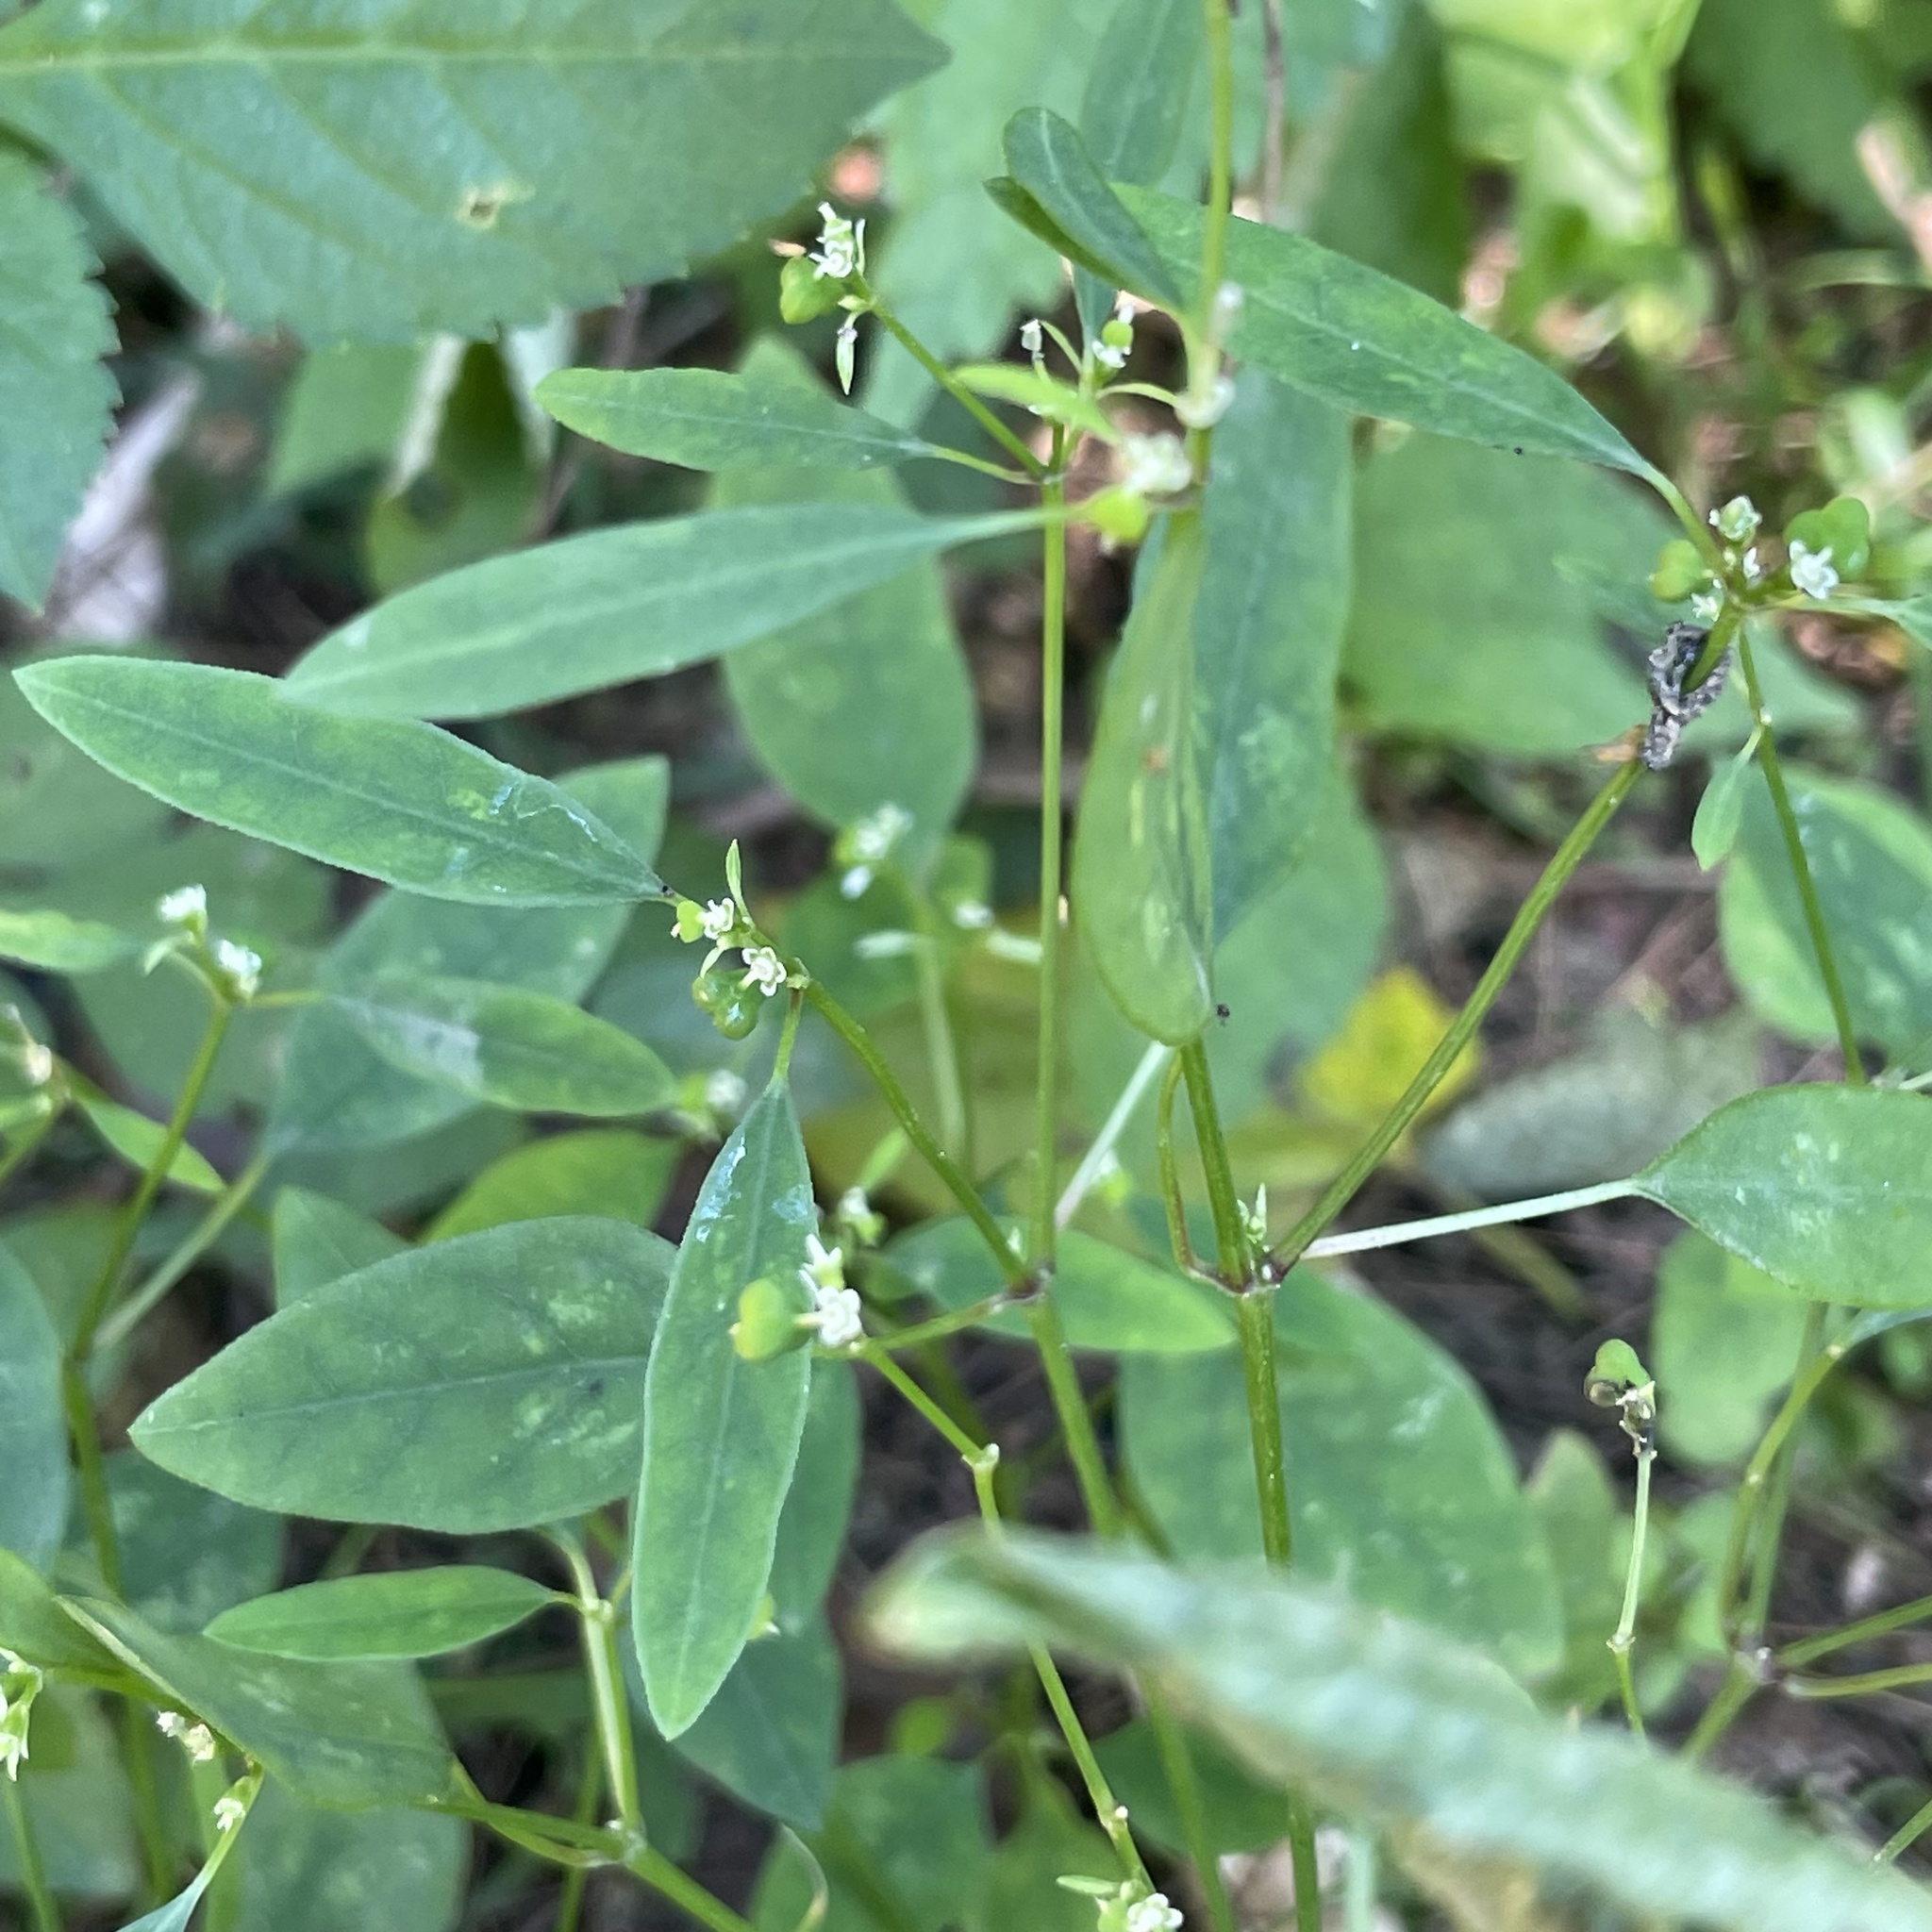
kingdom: Plantae
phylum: Tracheophyta
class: Magnoliopsida
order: Malpighiales
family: Euphorbiaceae
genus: Euphorbia
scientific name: Euphorbia graminea
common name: Grassleaf spurge
